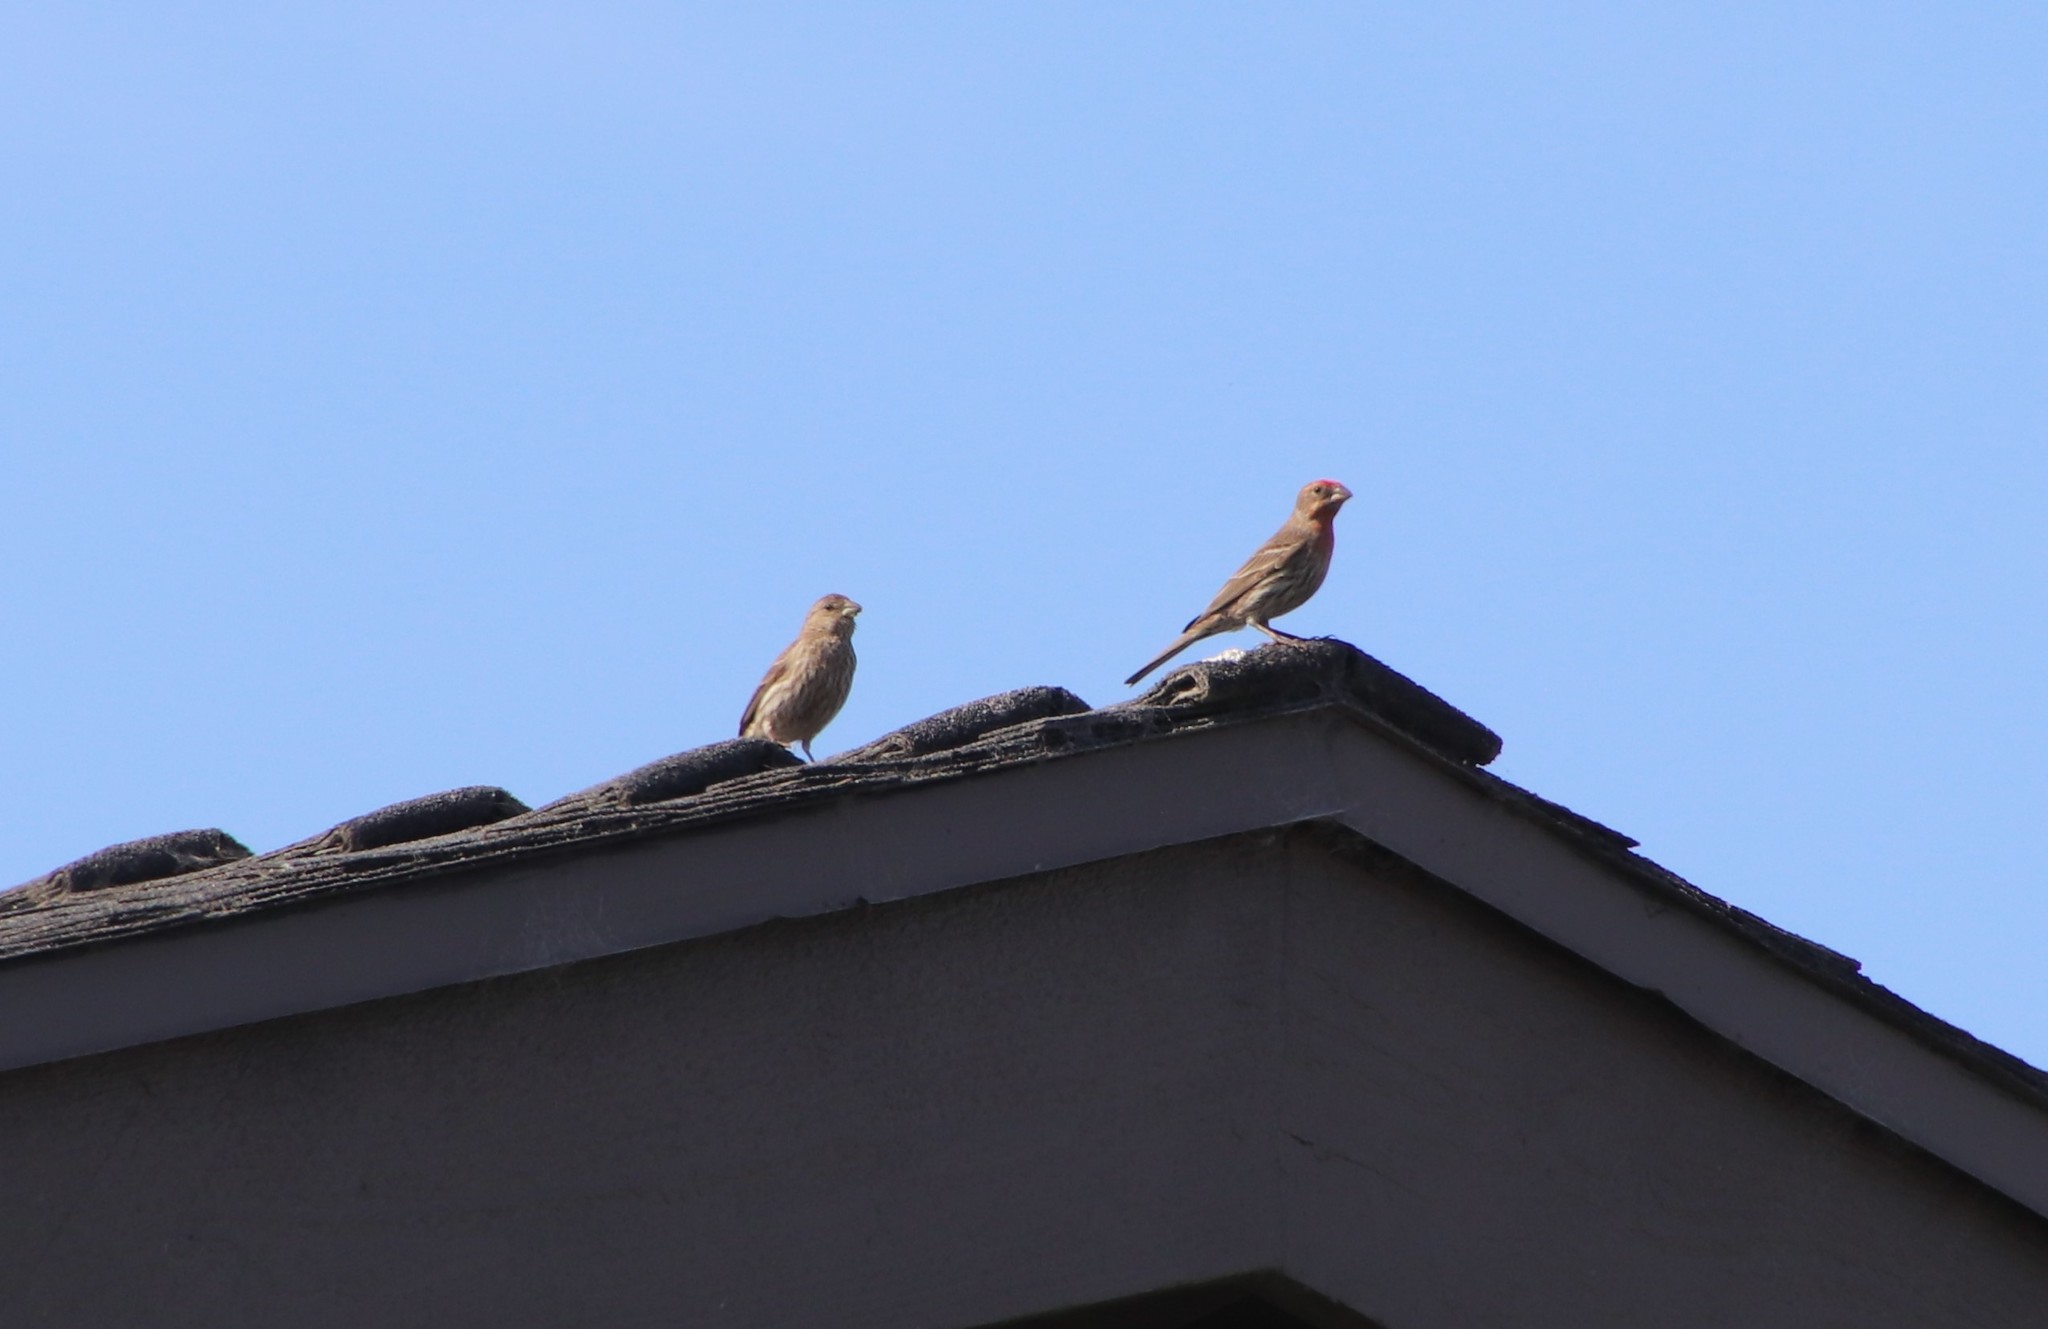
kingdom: Animalia
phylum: Chordata
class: Aves
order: Passeriformes
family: Fringillidae
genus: Haemorhous
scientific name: Haemorhous mexicanus
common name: House finch
